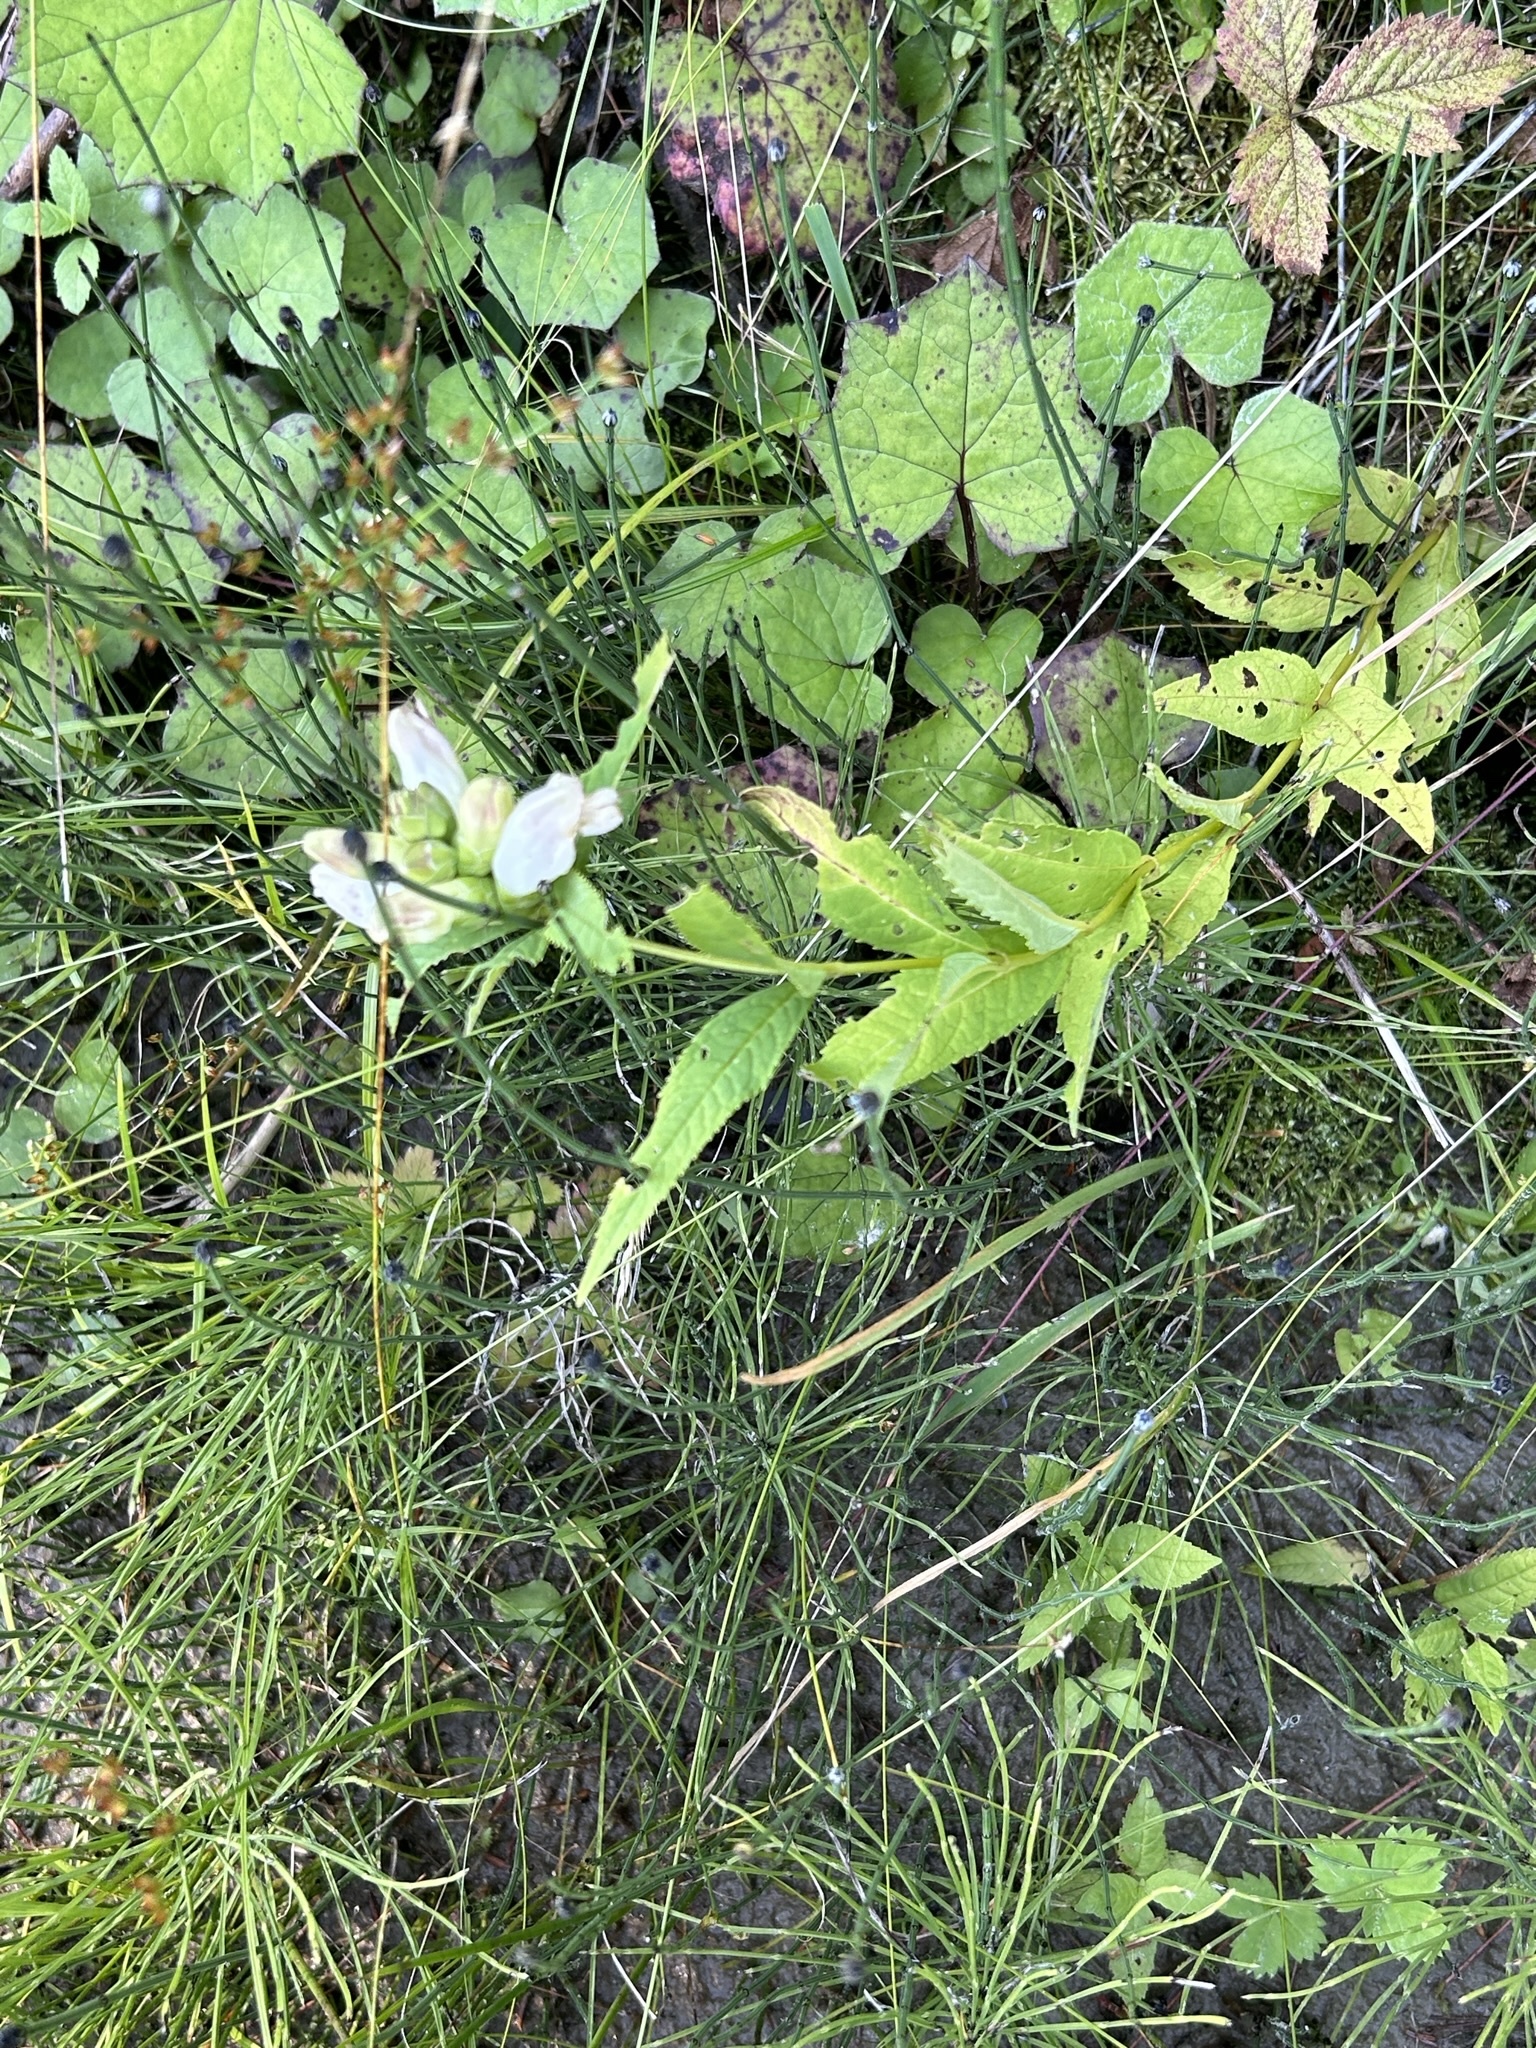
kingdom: Plantae
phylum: Tracheophyta
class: Magnoliopsida
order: Lamiales
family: Plantaginaceae
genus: Chelone
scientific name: Chelone glabra
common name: Snakehead
